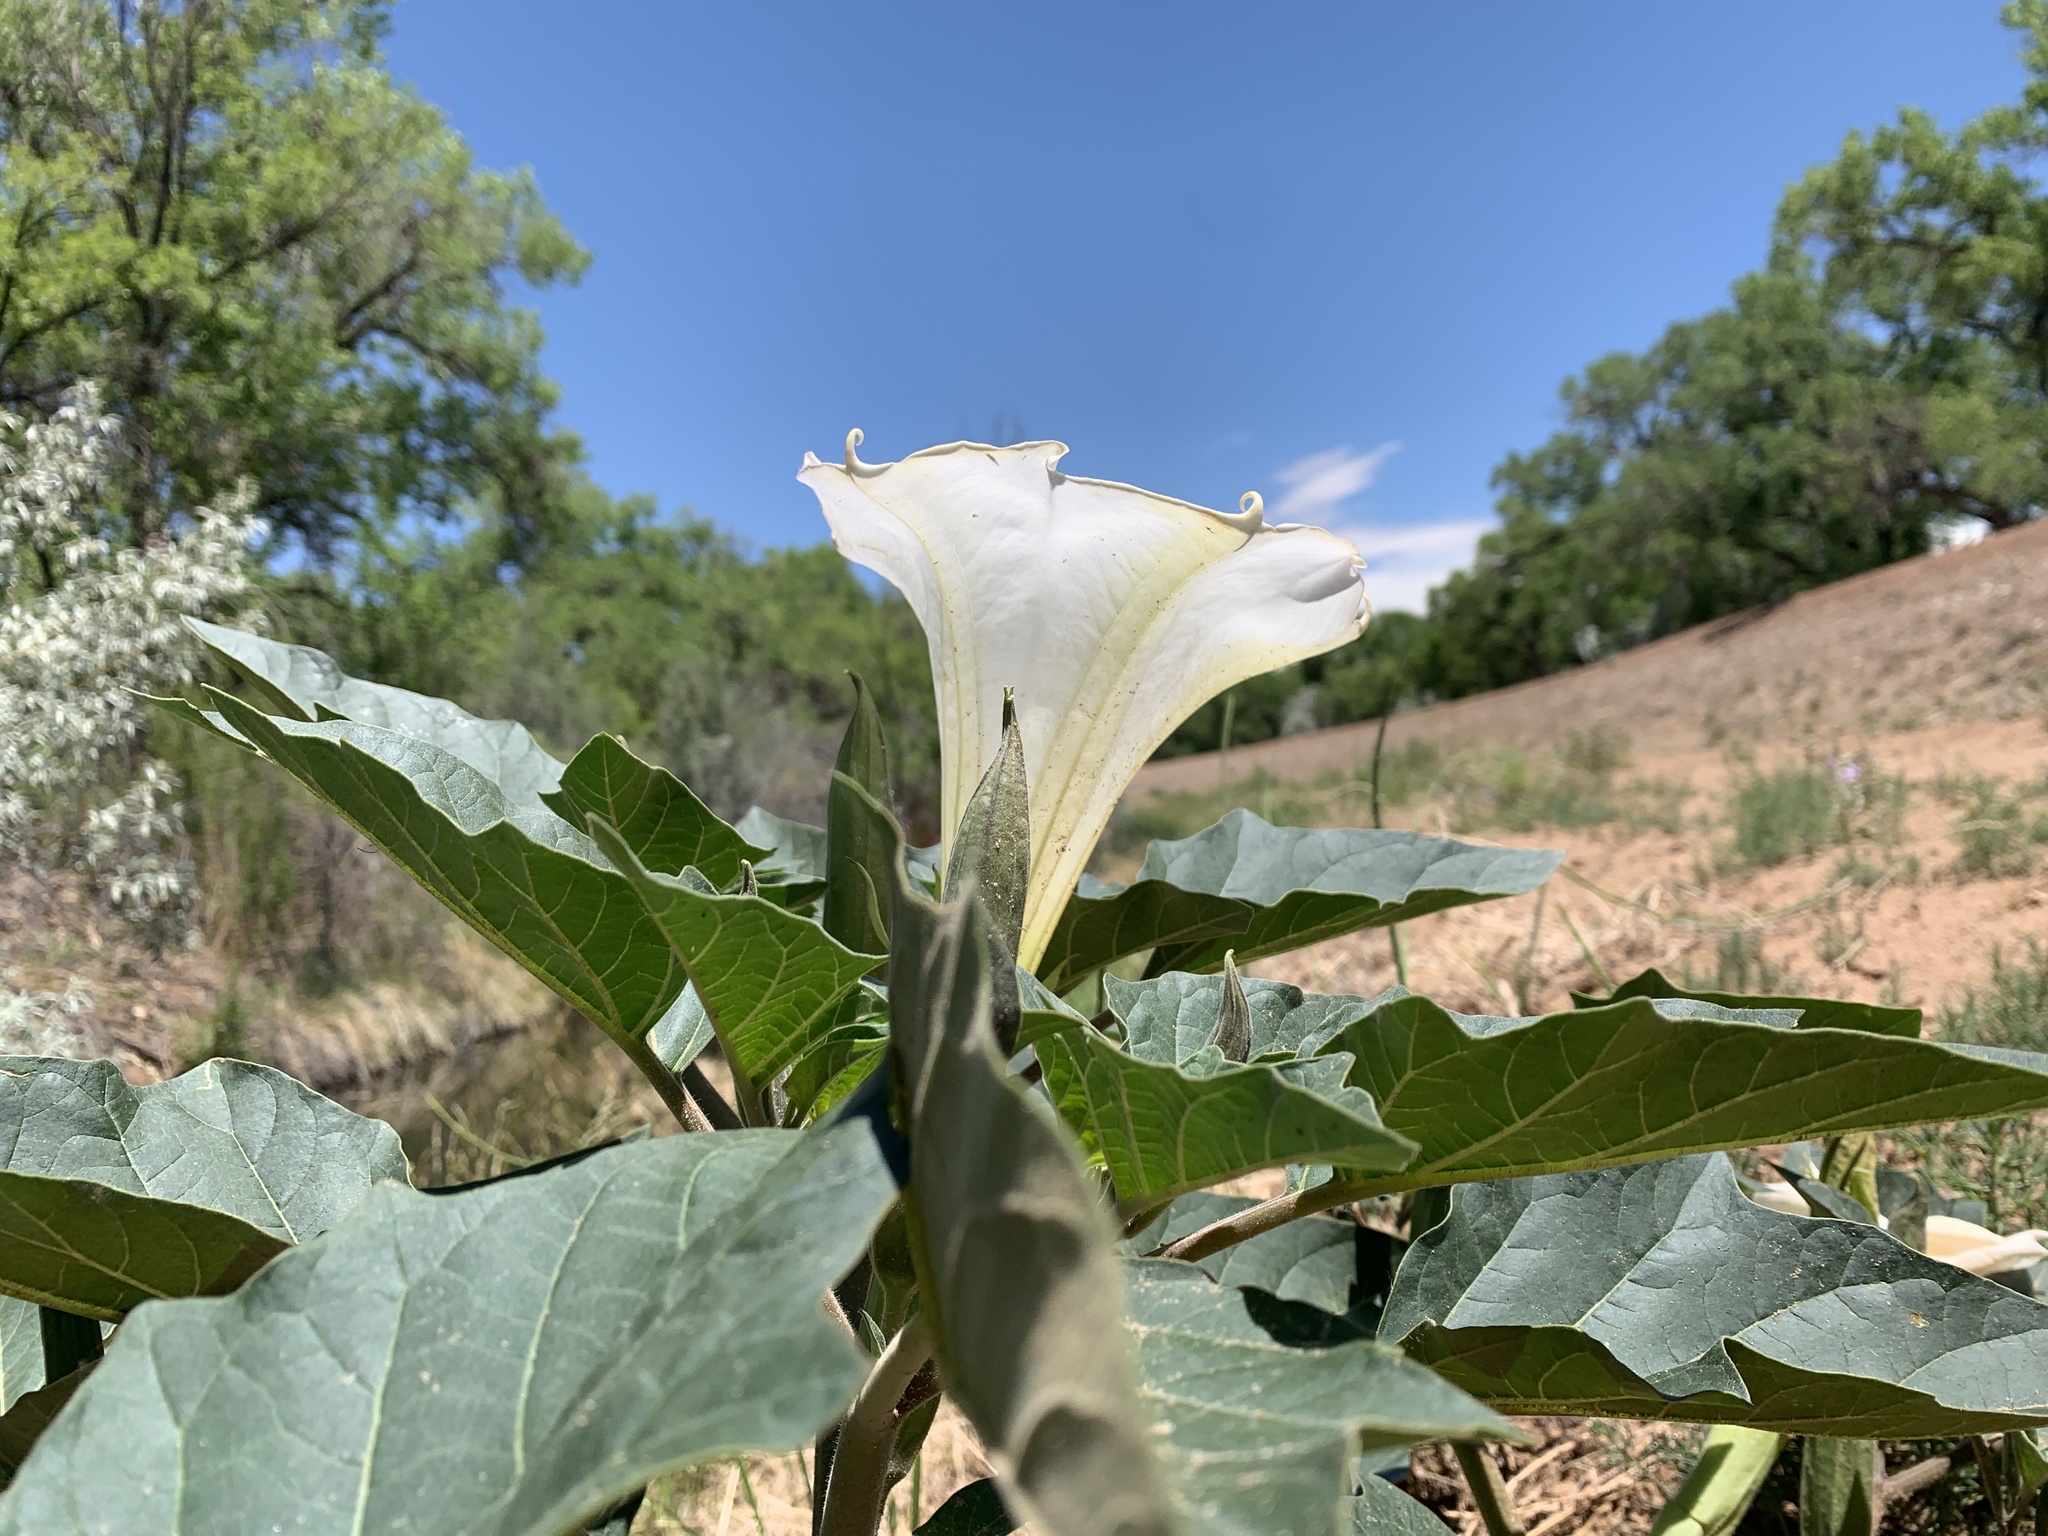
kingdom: Plantae
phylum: Tracheophyta
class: Magnoliopsida
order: Solanales
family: Solanaceae
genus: Datura
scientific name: Datura wrightii
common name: Sacred thorn-apple
